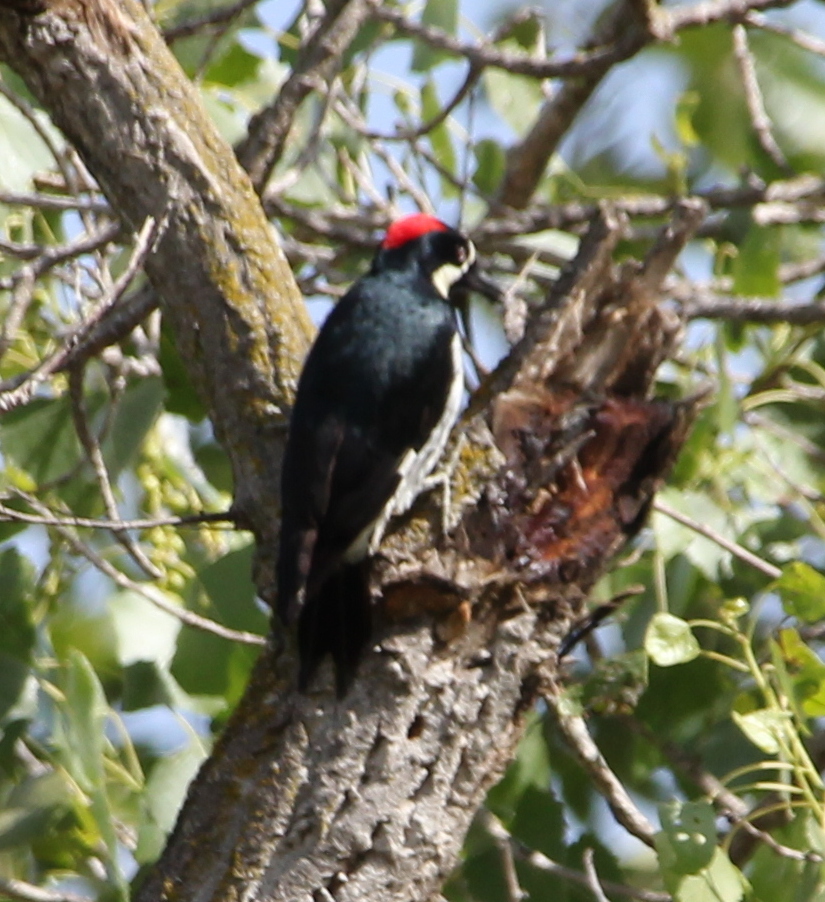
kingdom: Animalia
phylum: Chordata
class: Aves
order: Piciformes
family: Picidae
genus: Melanerpes
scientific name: Melanerpes formicivorus
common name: Acorn woodpecker
